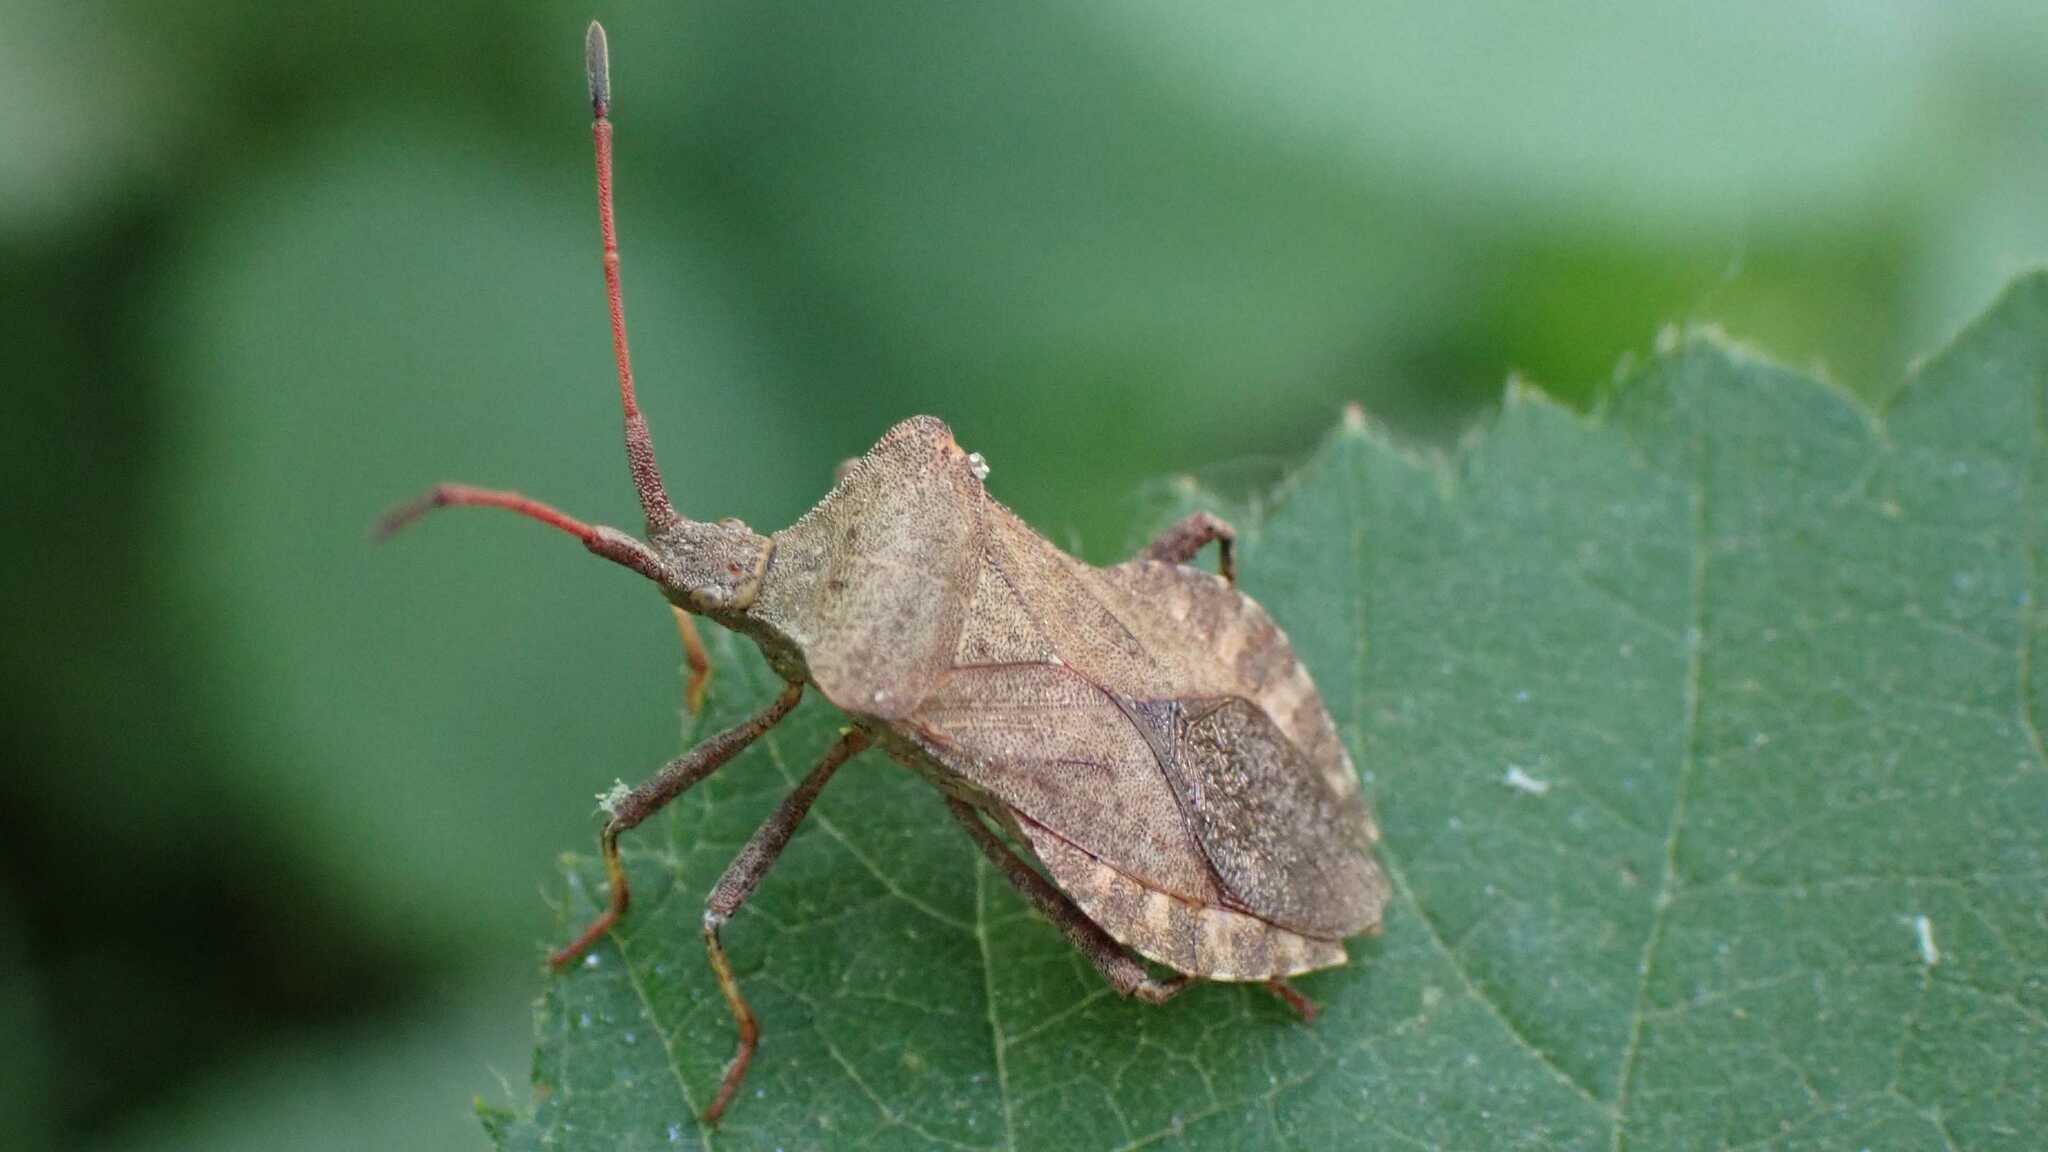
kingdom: Animalia
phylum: Arthropoda
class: Insecta
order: Hemiptera
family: Coreidae
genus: Coreus
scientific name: Coreus marginatus
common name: Dock bug
